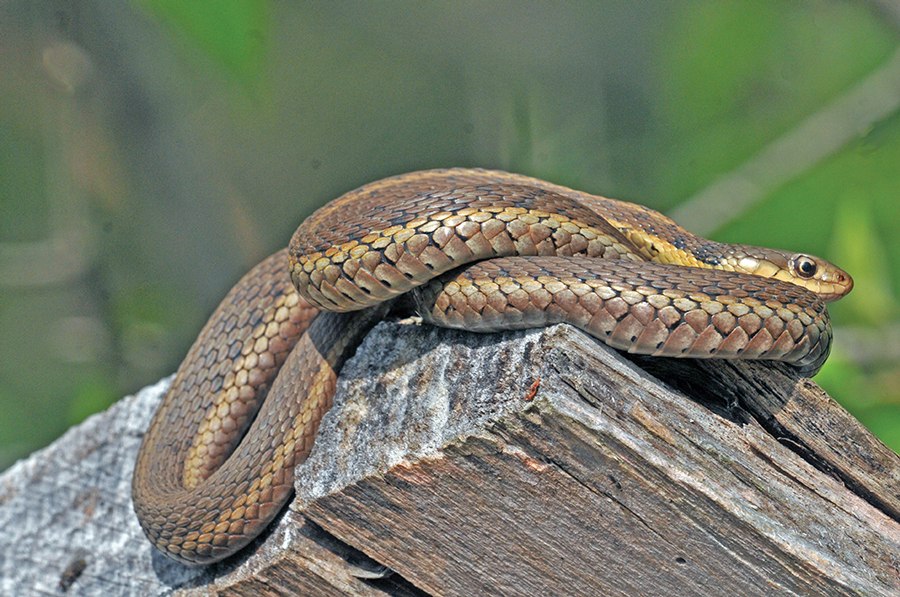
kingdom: Animalia
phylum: Chordata
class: Squamata
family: Colubridae
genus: Thamnophis
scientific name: Thamnophis sirtalis
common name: Common garter snake
